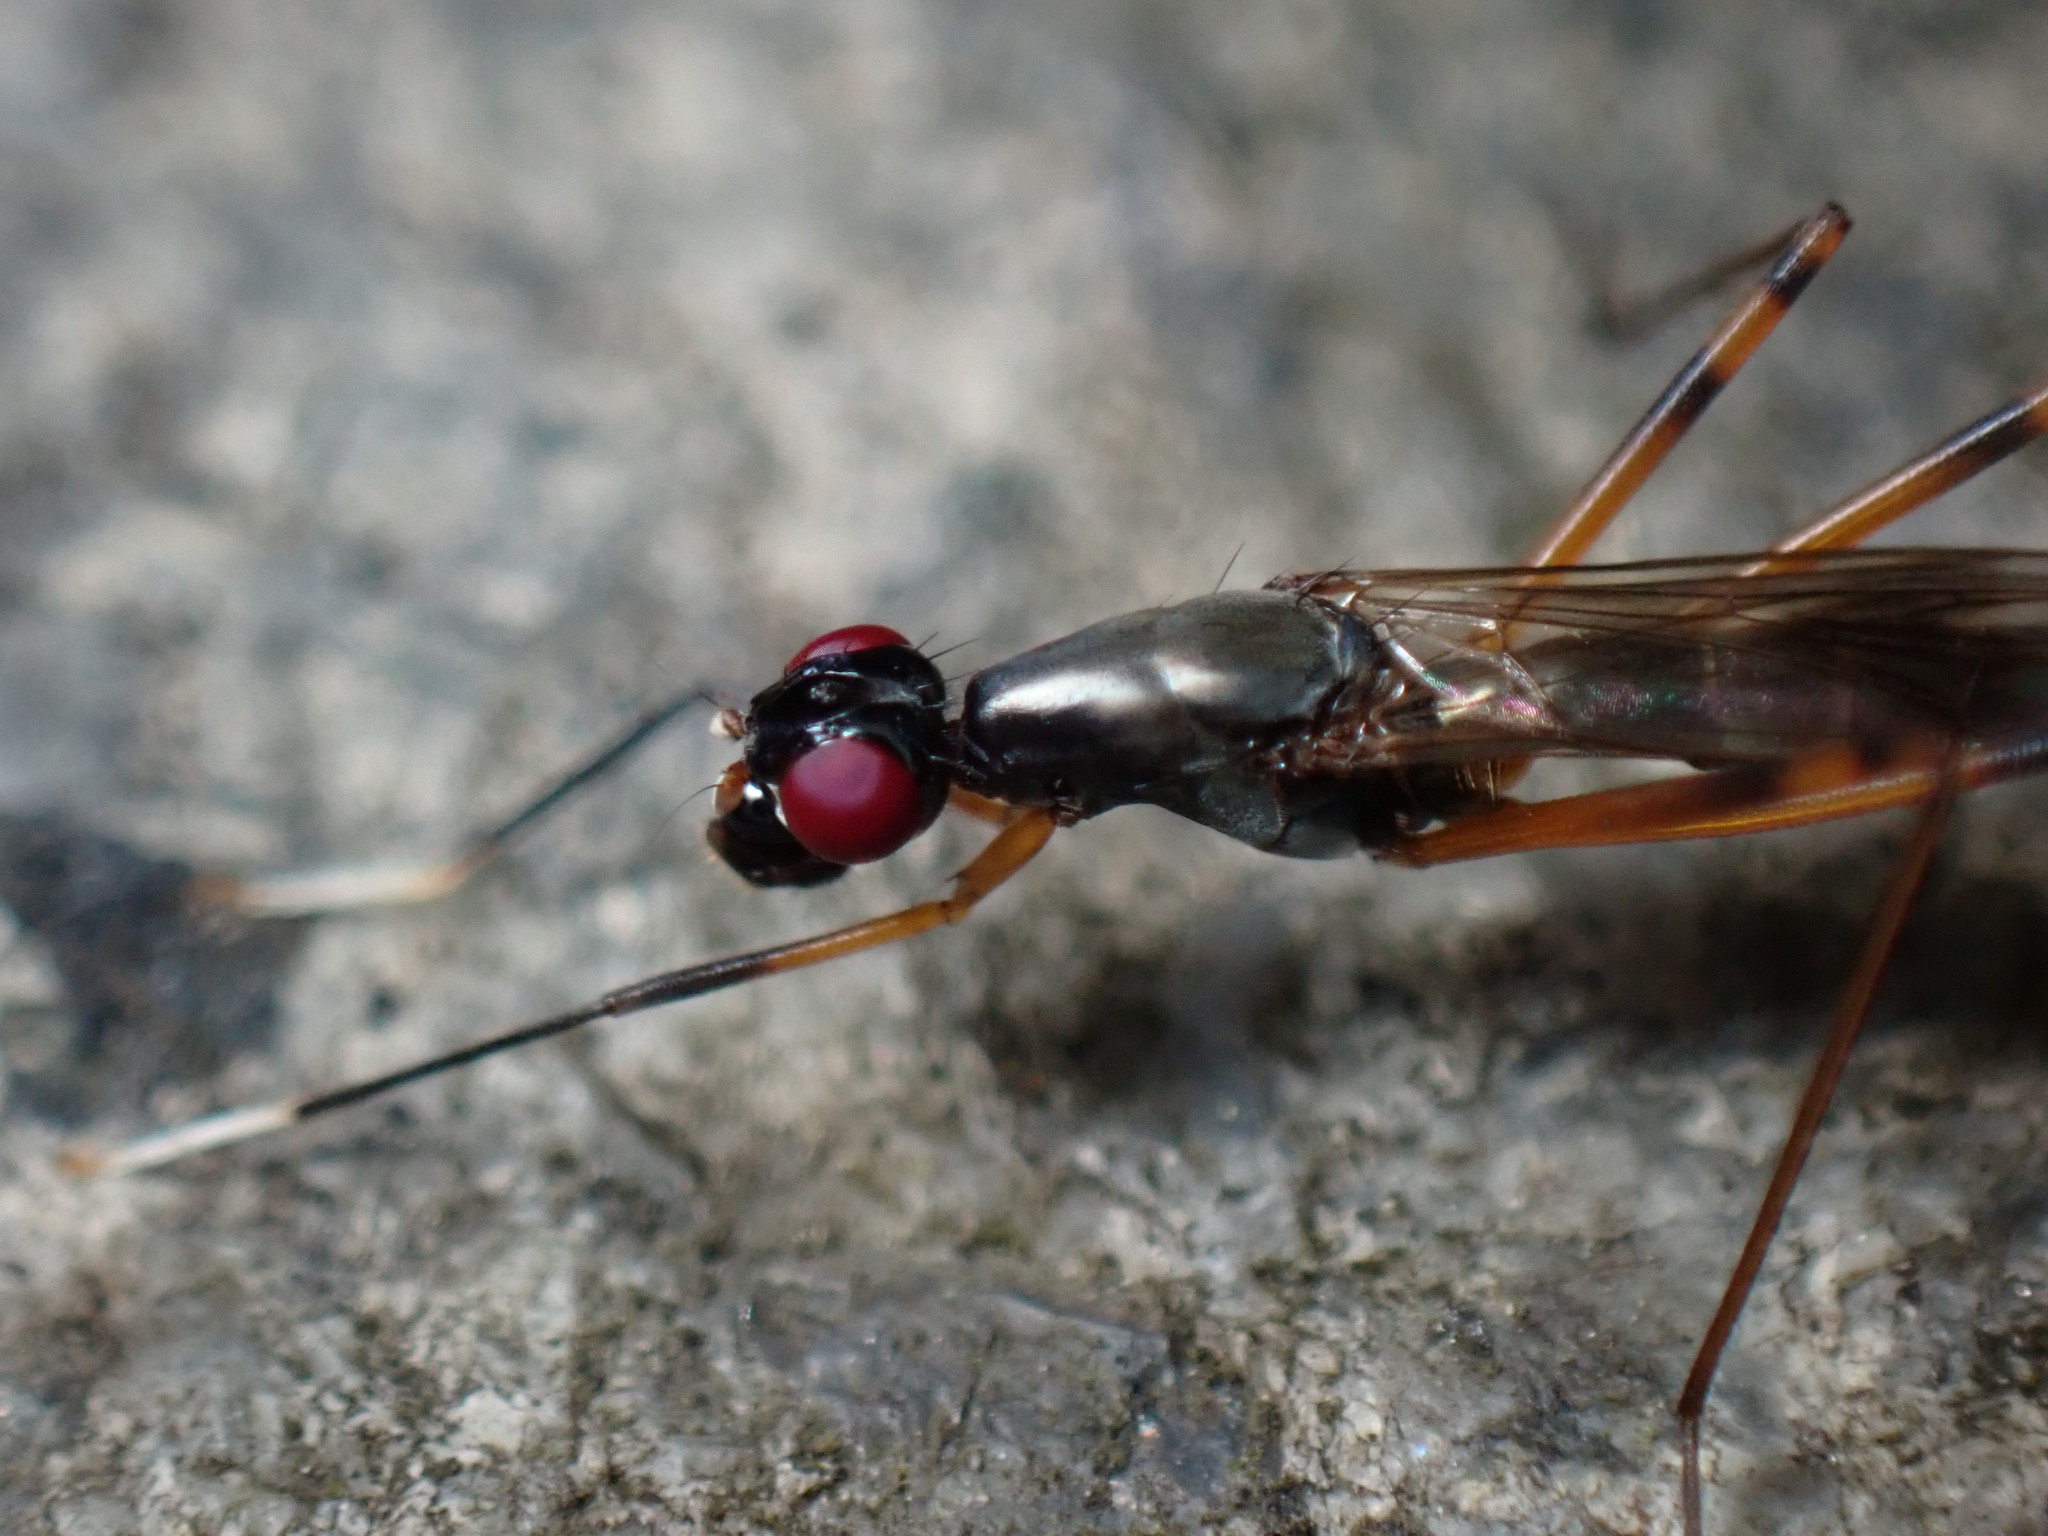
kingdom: Animalia
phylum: Arthropoda
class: Insecta
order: Diptera
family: Micropezidae
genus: Rainieria
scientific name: Rainieria antennaepes
